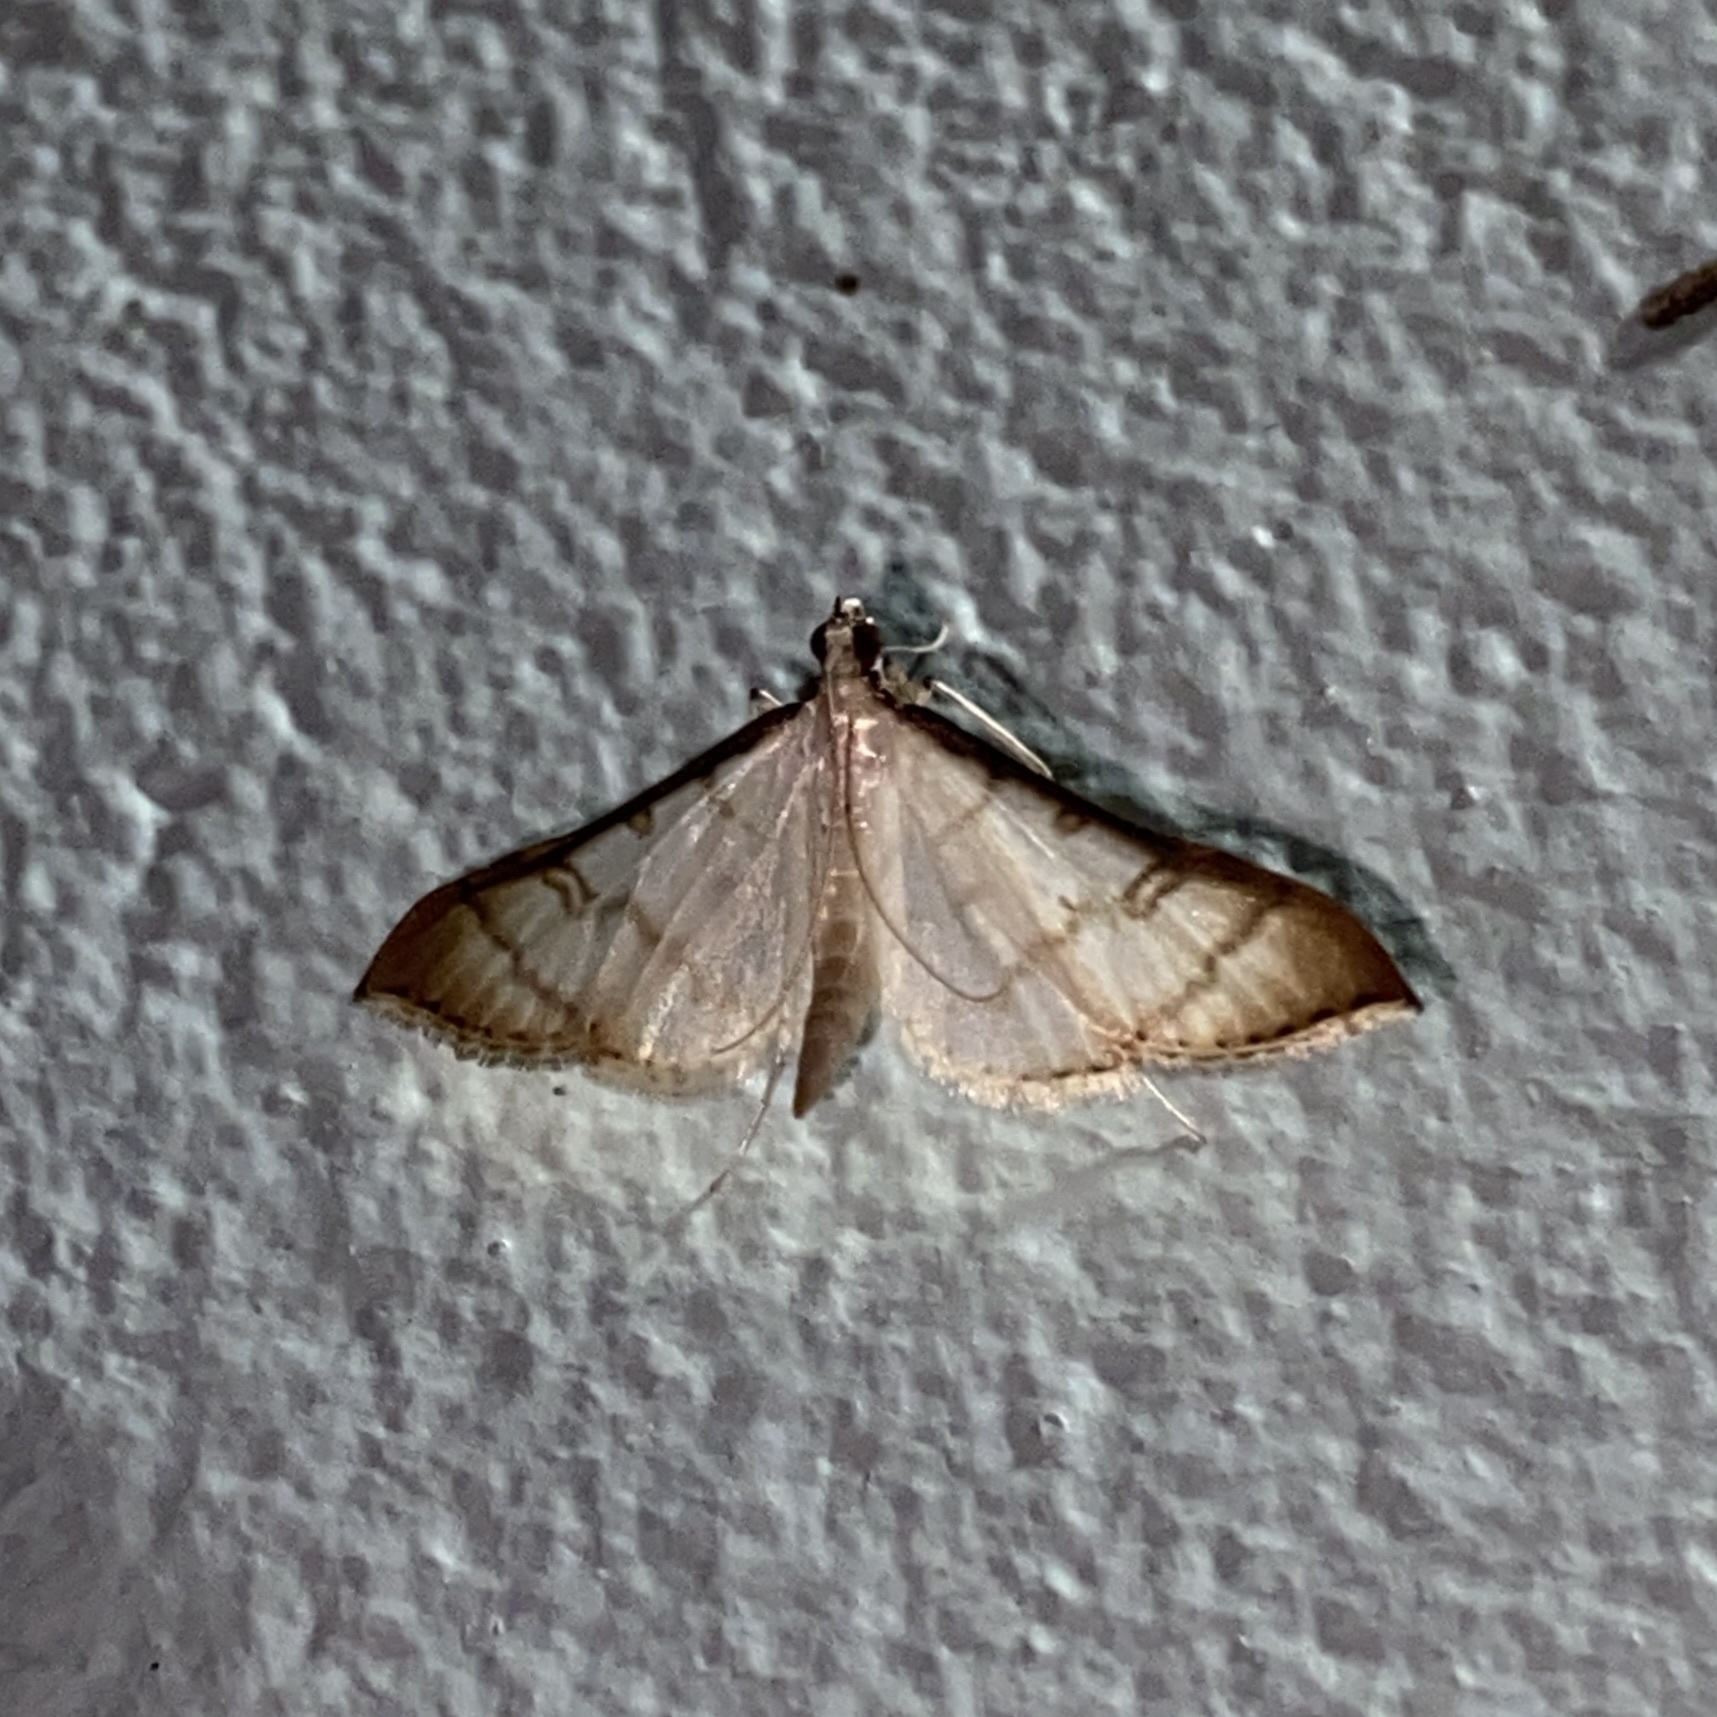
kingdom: Animalia
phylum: Arthropoda
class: Insecta
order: Lepidoptera
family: Crambidae
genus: Stenia
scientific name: Stenia colubralis
